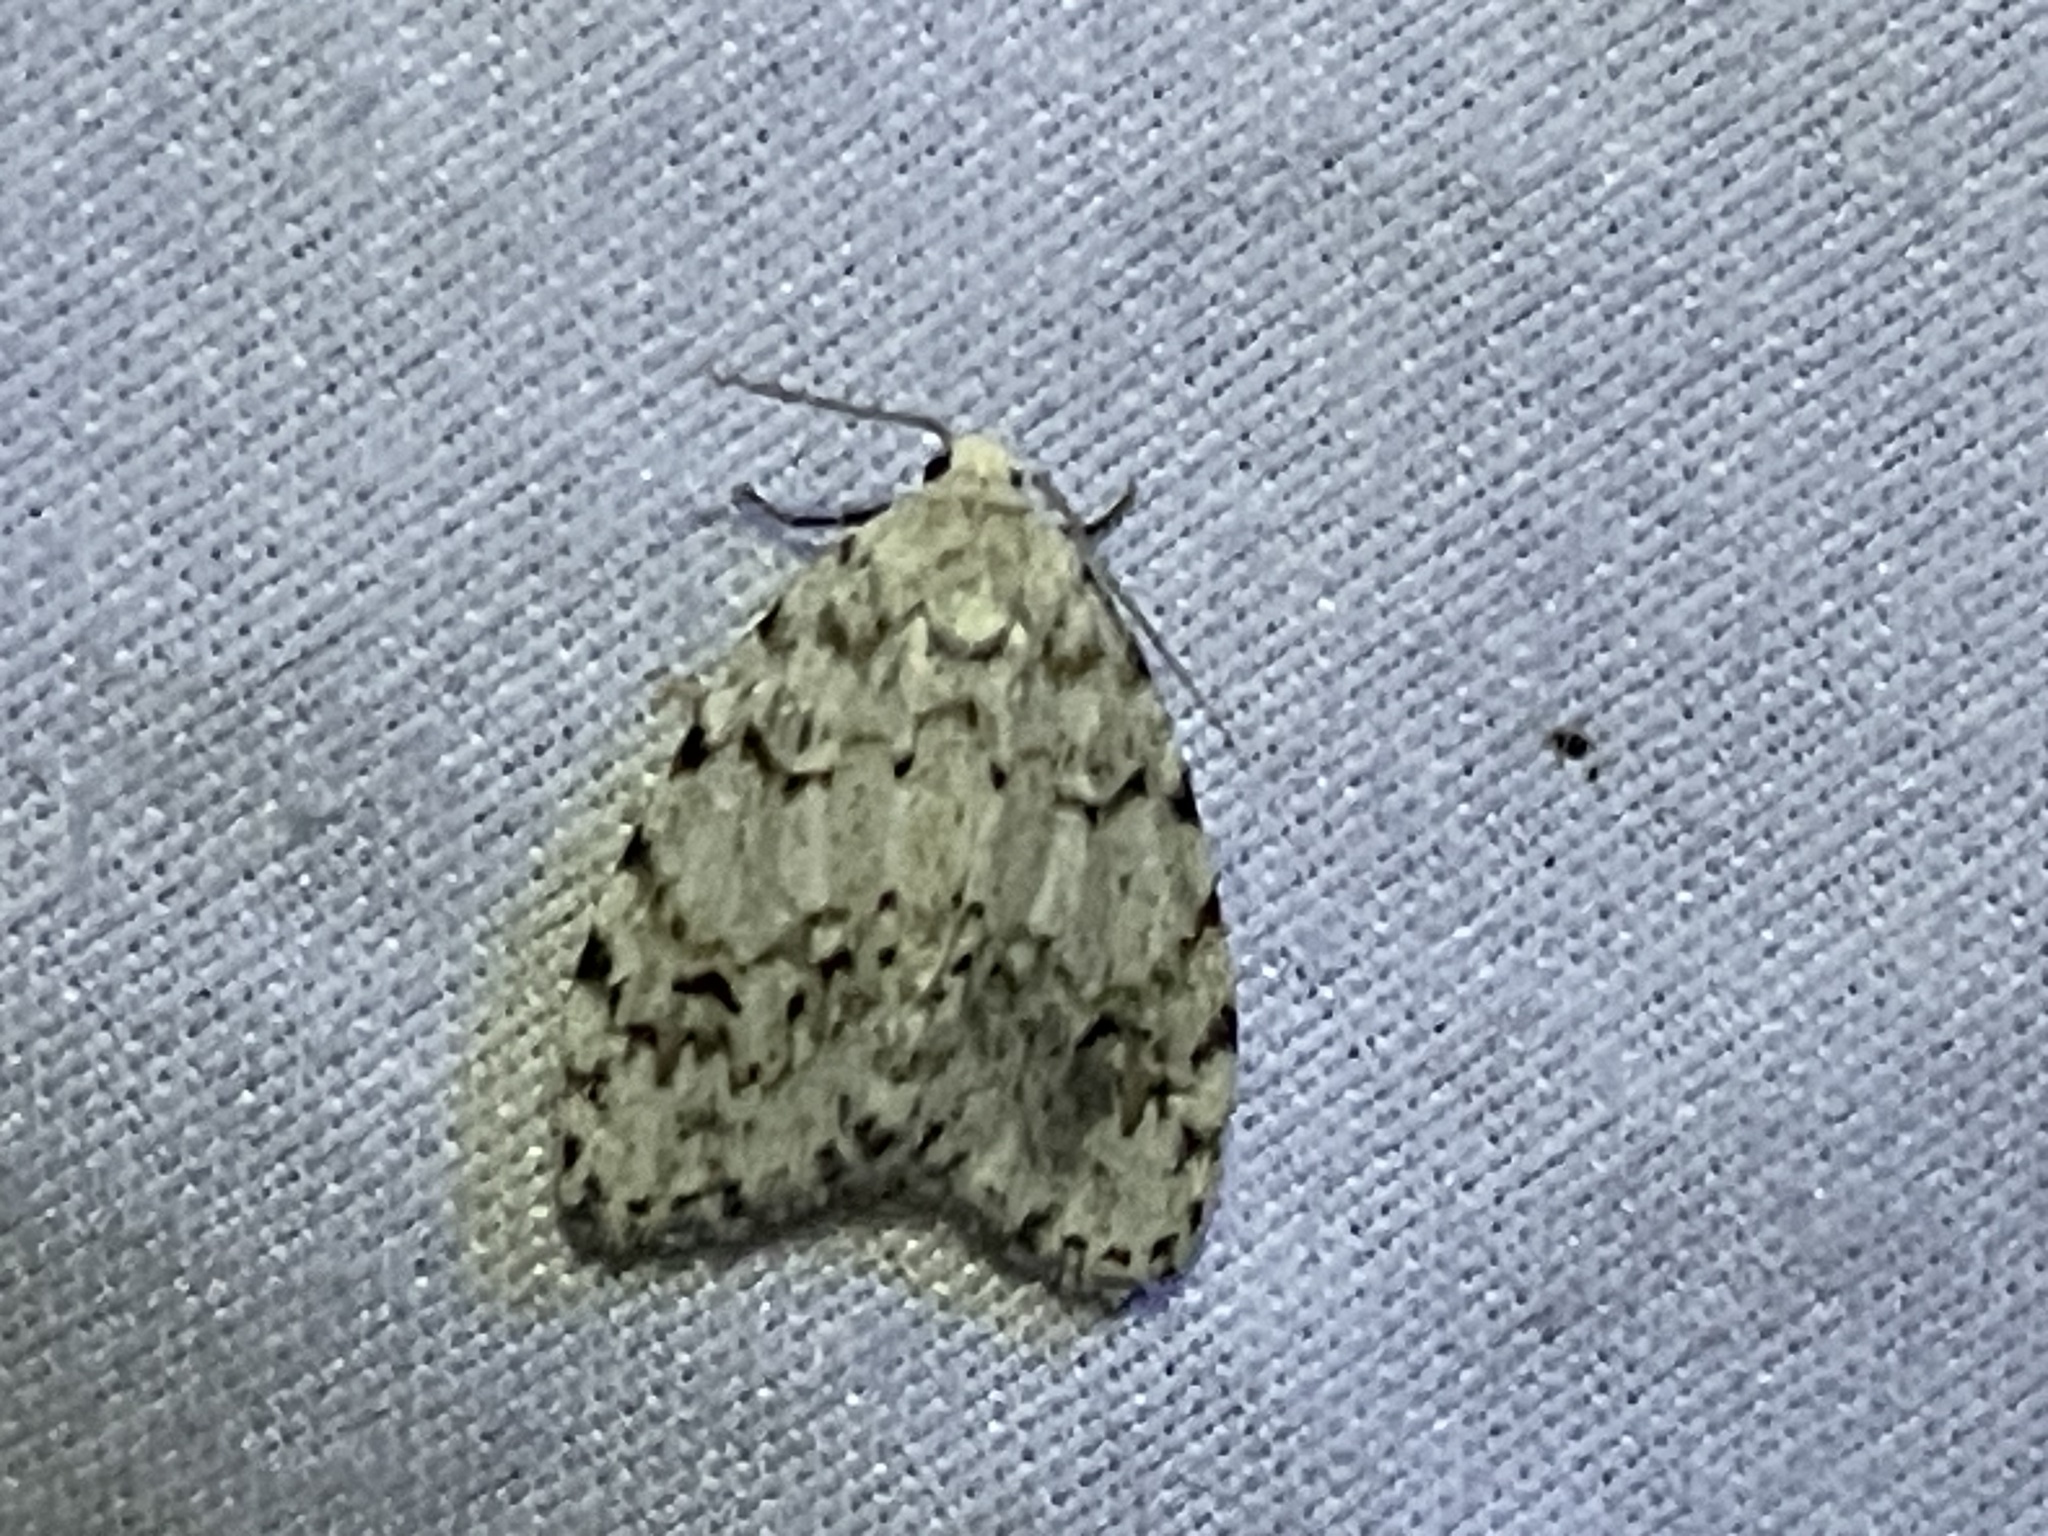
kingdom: Animalia
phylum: Arthropoda
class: Insecta
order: Lepidoptera
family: Erebidae
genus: Clemensia
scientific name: Clemensia albata
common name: Little white lichen moth
